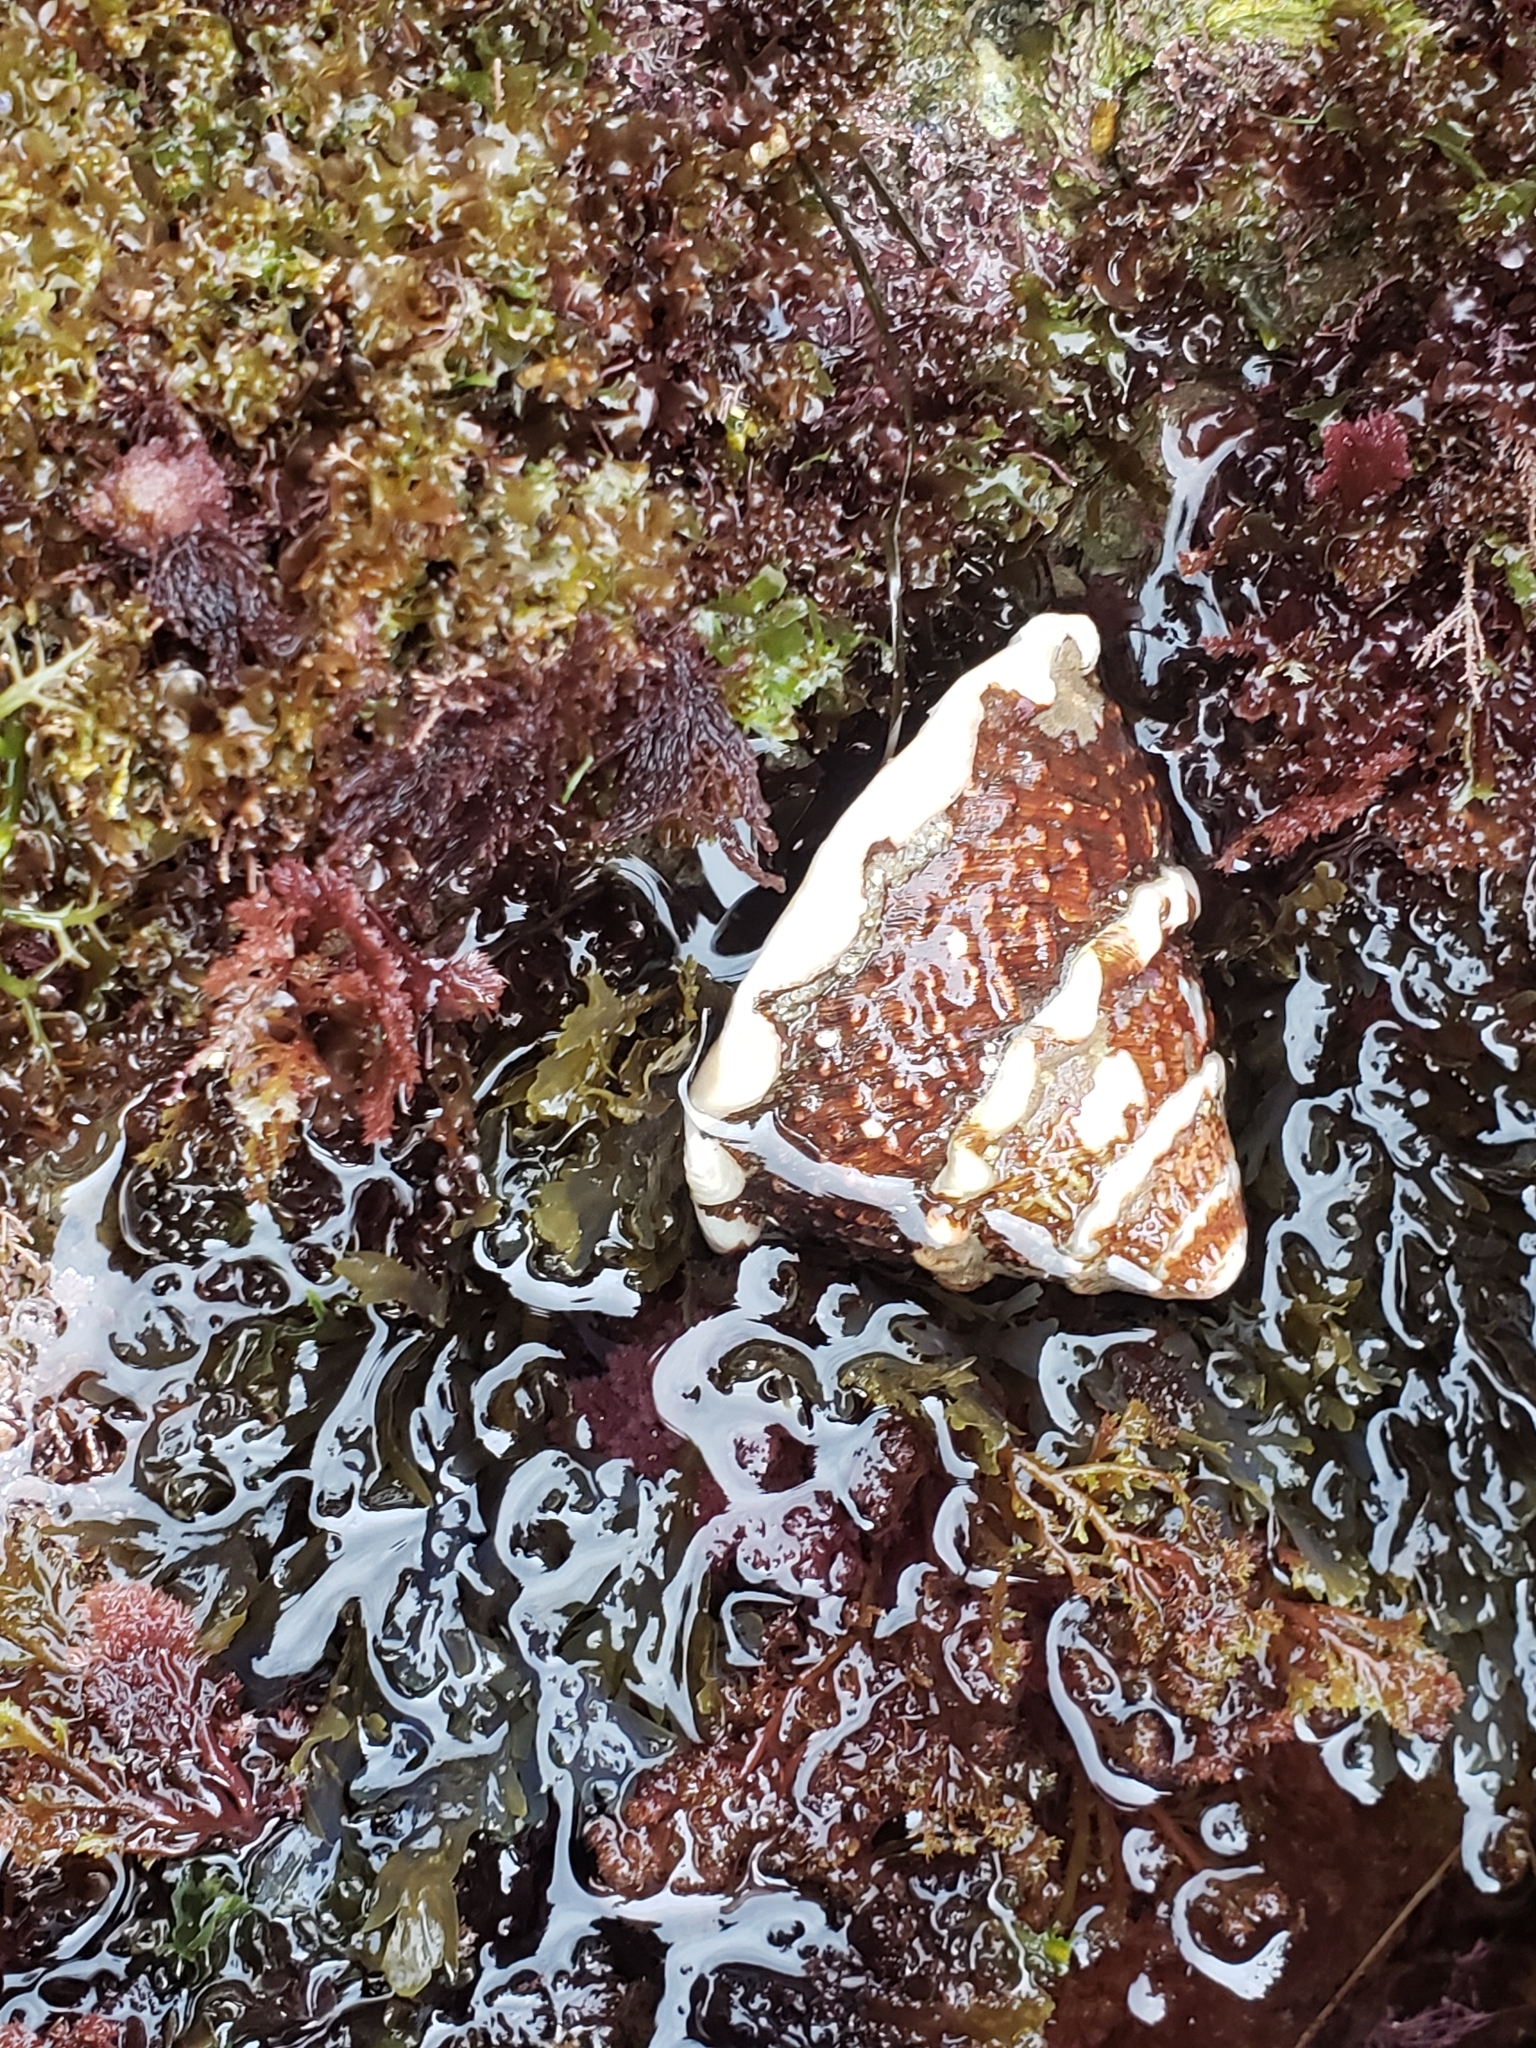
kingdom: Animalia
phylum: Mollusca
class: Gastropoda
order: Trochida
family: Turbinidae
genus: Megastraea
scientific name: Megastraea undosa
